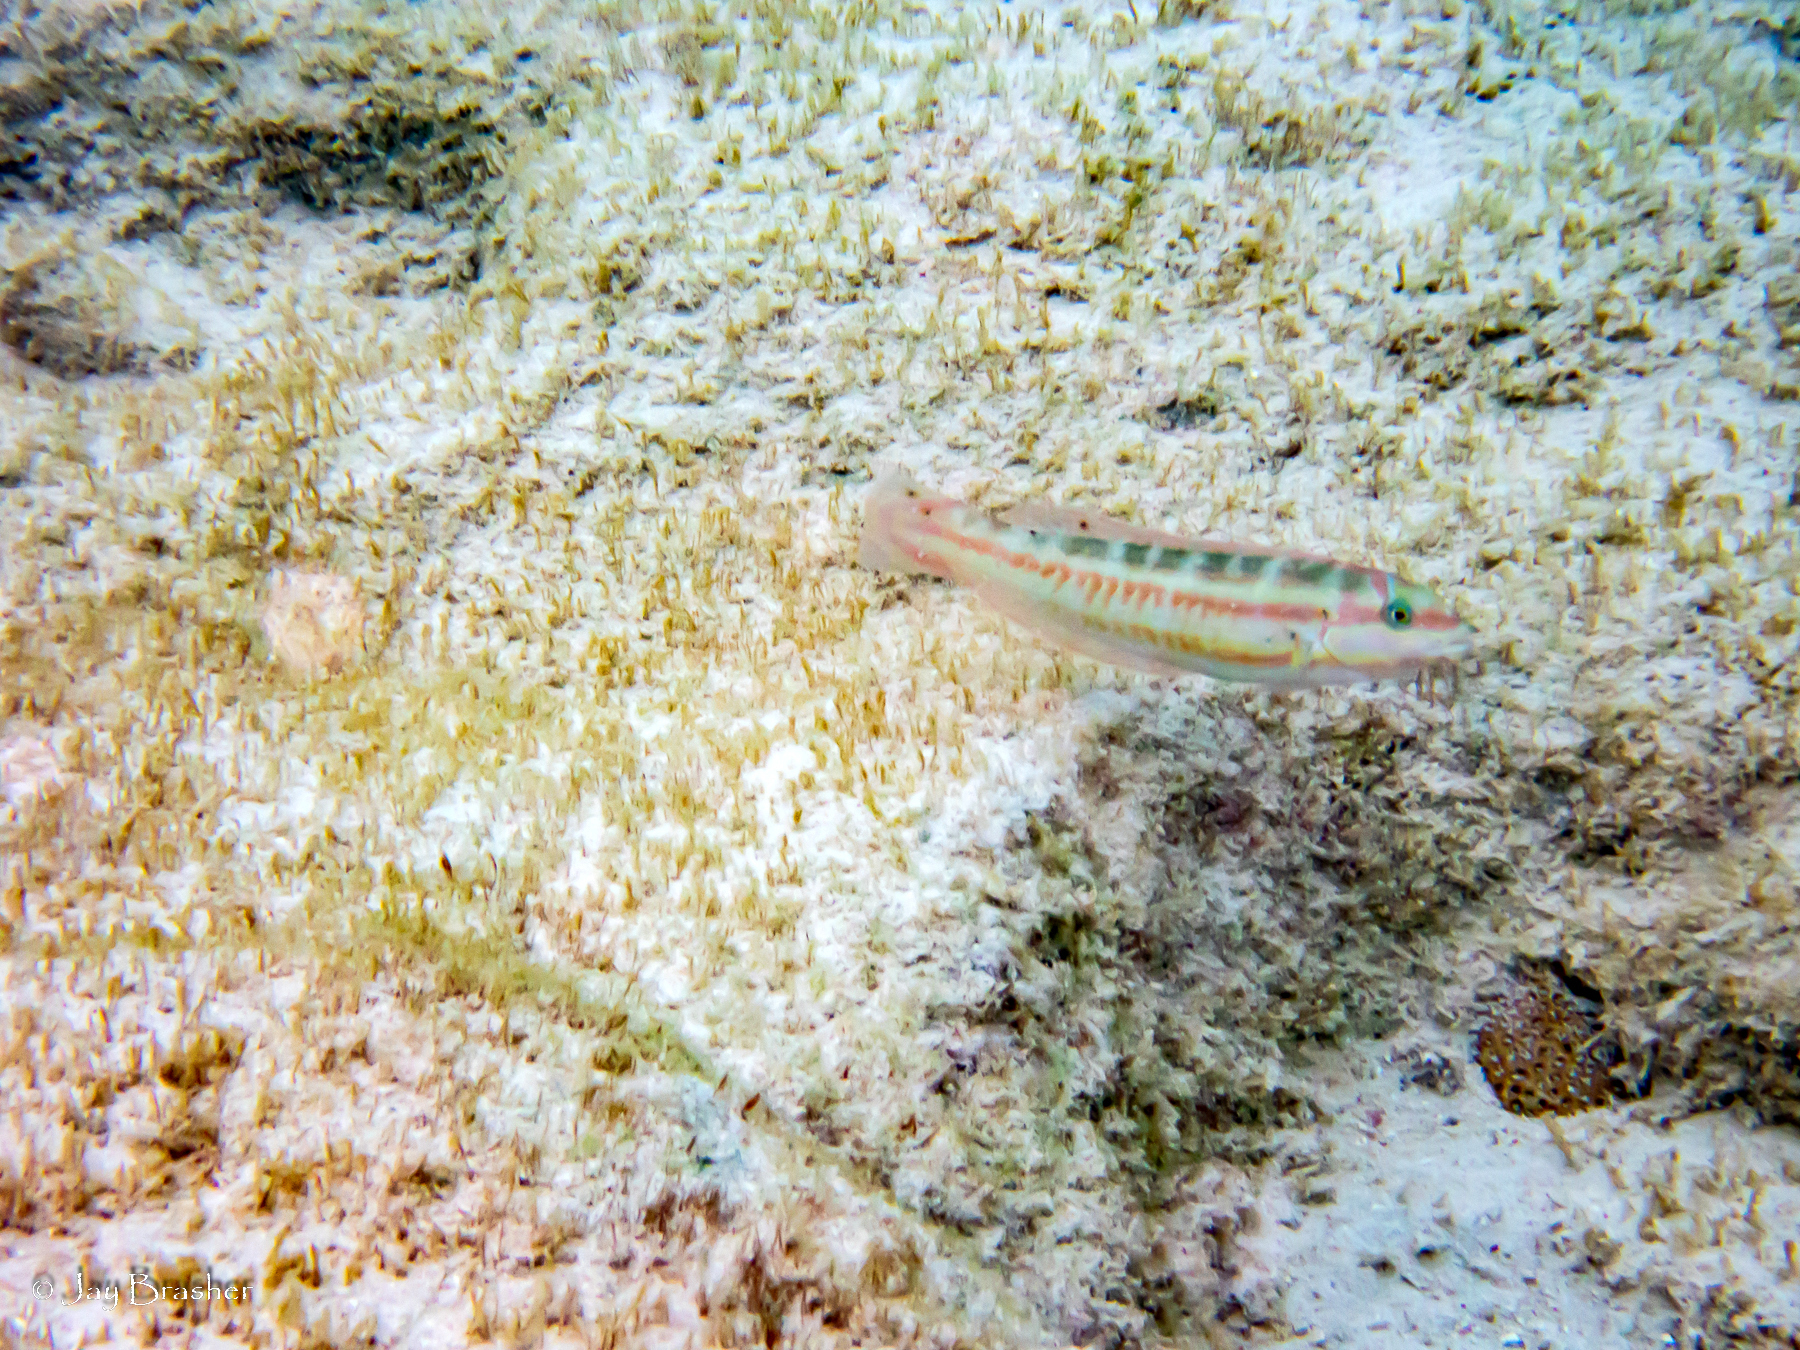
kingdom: Animalia
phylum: Chordata
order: Perciformes
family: Labridae
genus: Halichoeres
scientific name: Halichoeres bivittatus
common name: Slippery dick
